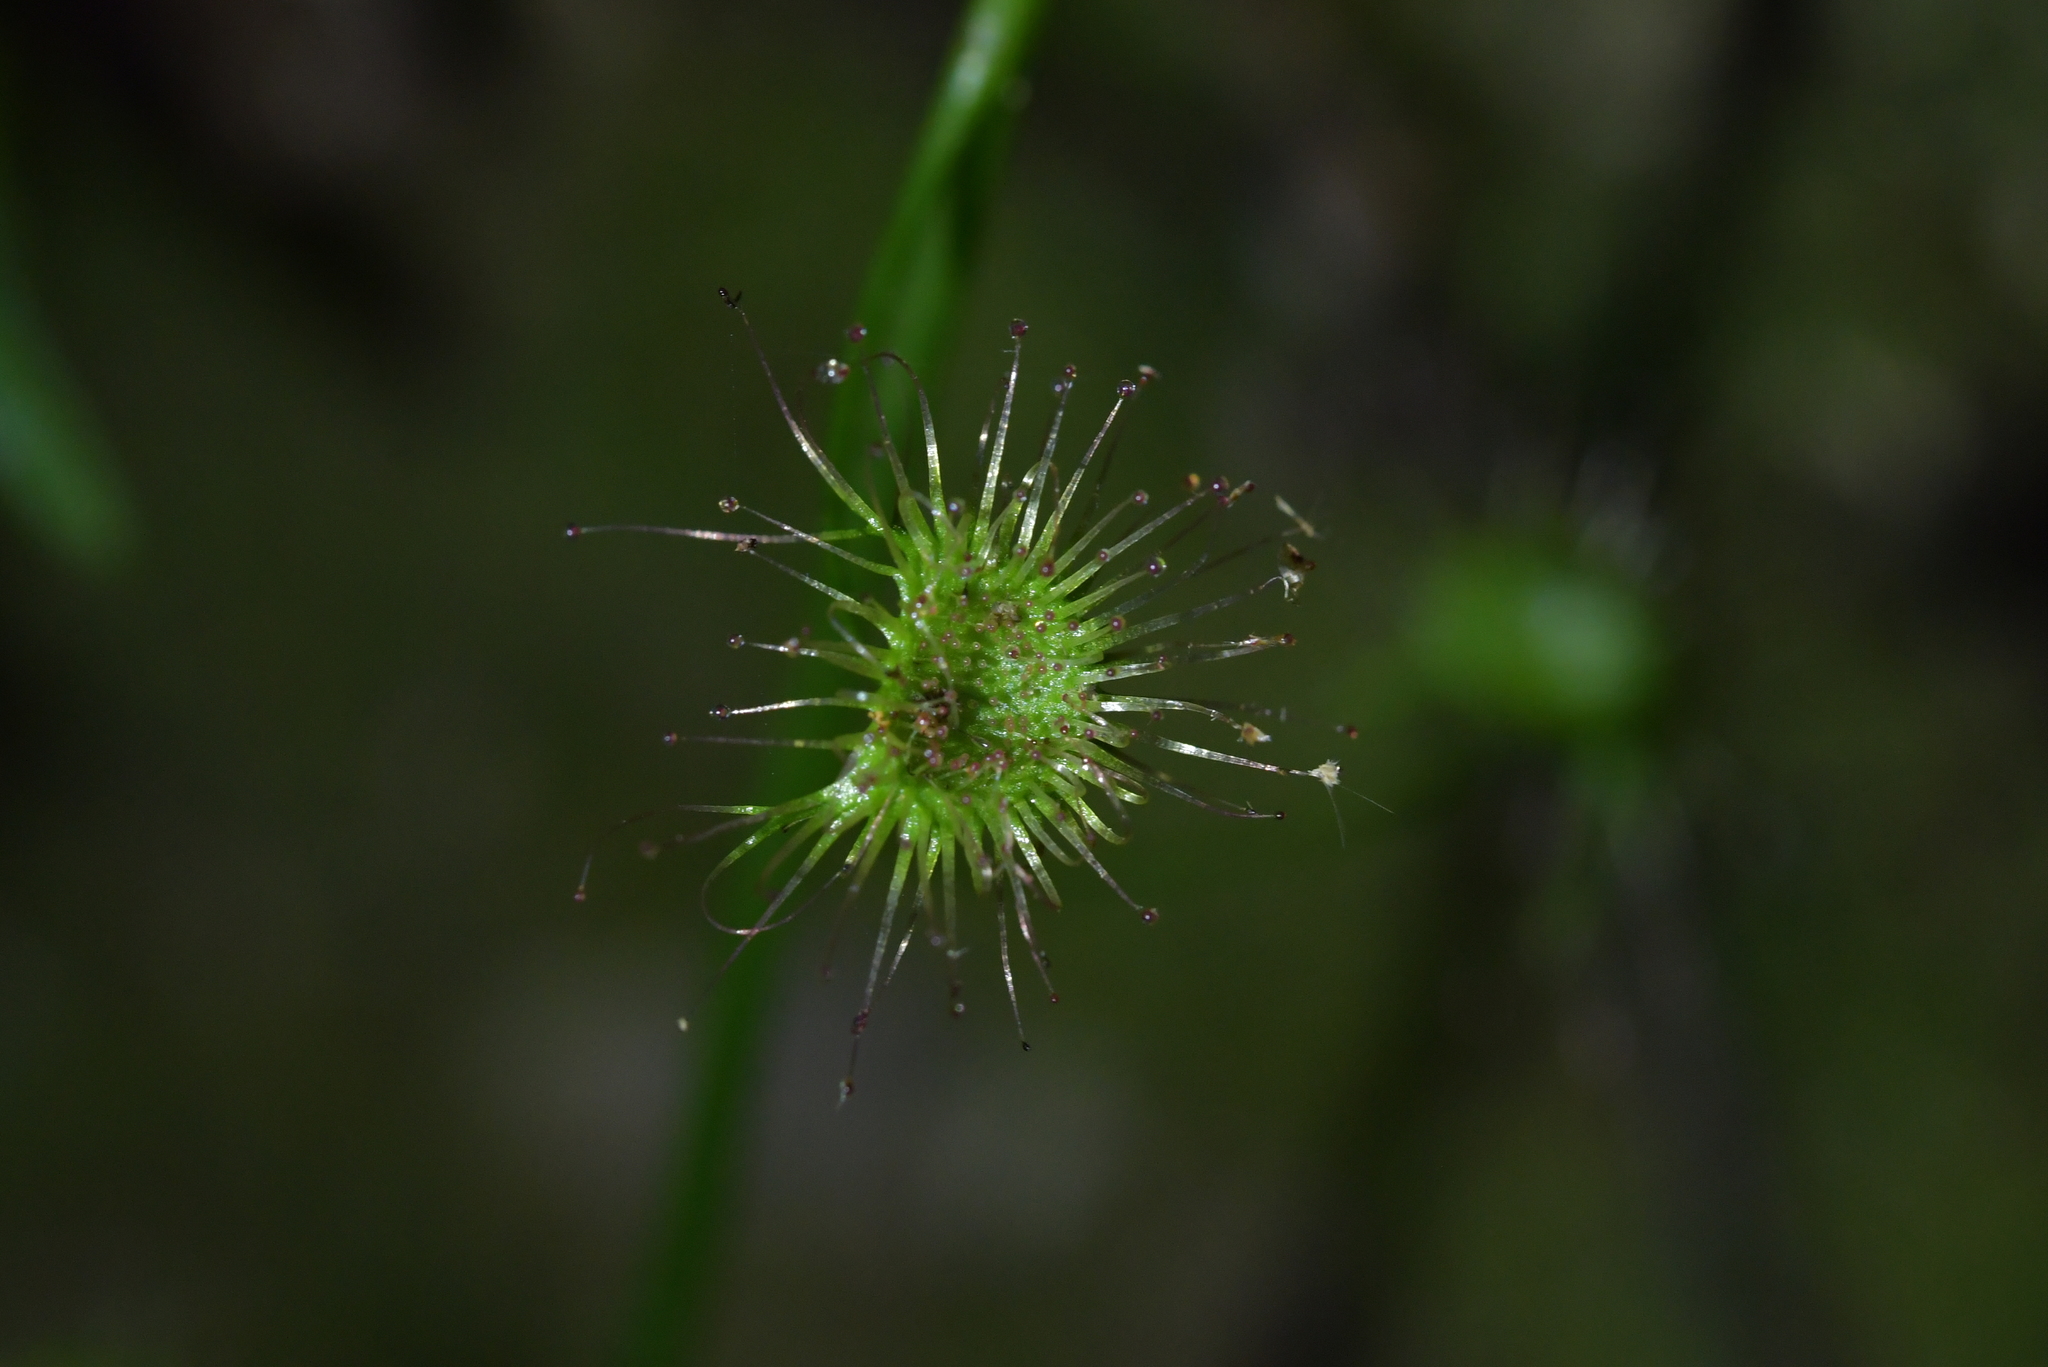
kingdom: Plantae
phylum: Tracheophyta
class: Magnoliopsida
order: Caryophyllales
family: Droseraceae
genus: Drosera
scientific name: Drosera peltata
